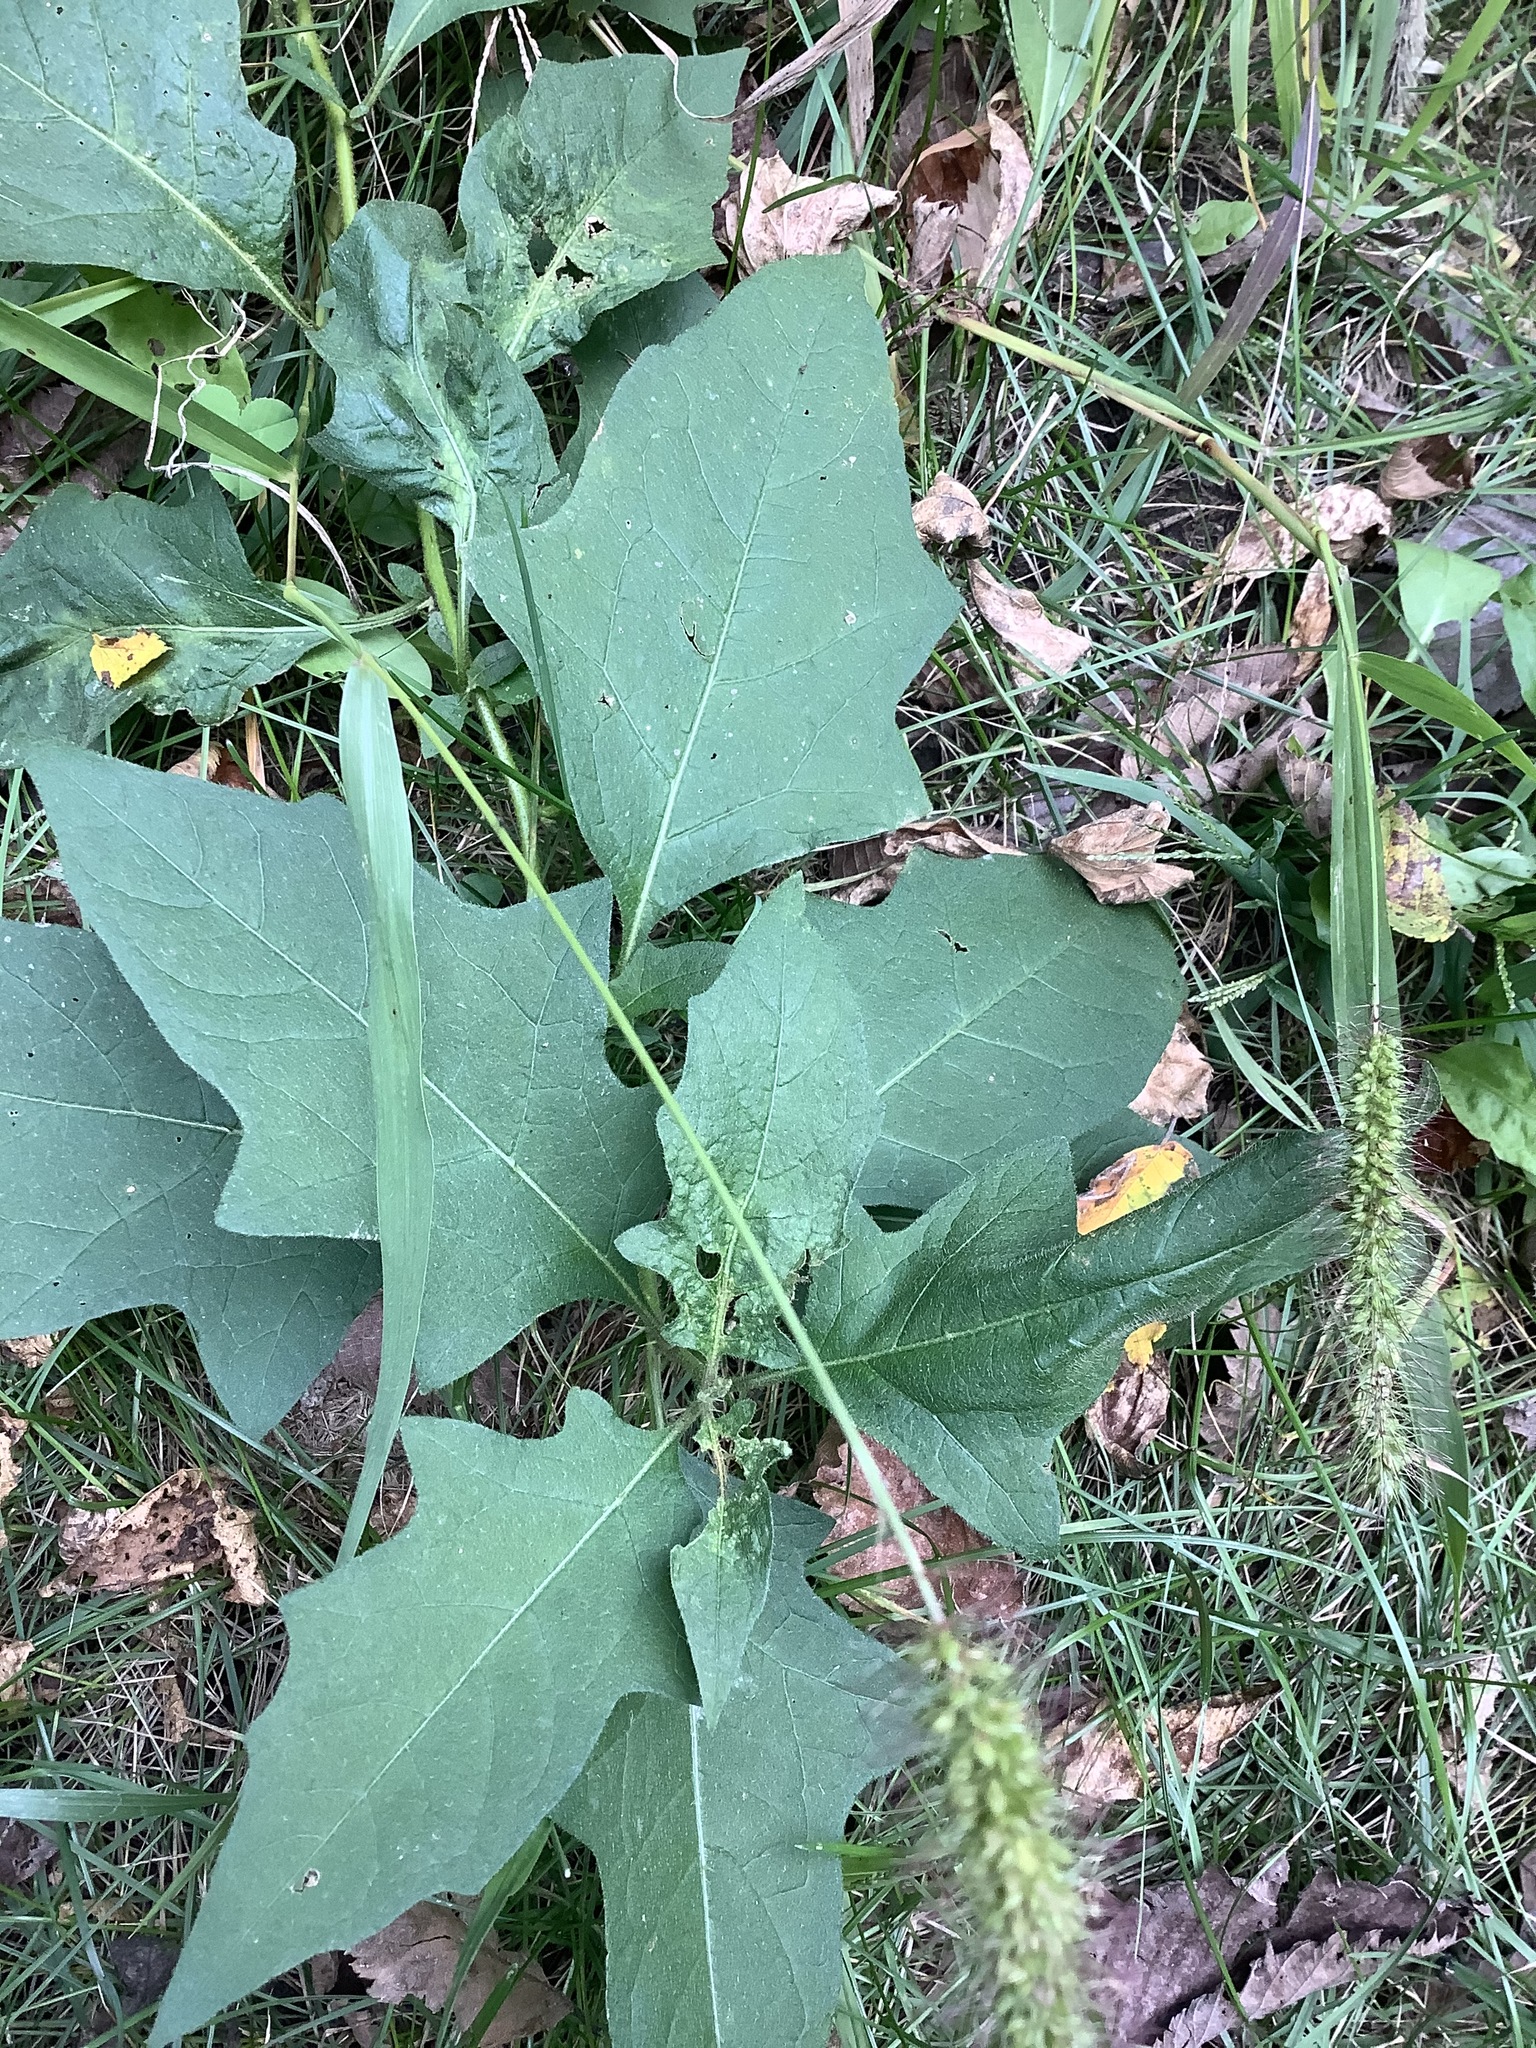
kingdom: Plantae
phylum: Tracheophyta
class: Magnoliopsida
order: Solanales
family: Solanaceae
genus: Solanum
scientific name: Solanum carolinense
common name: Horse-nettle
